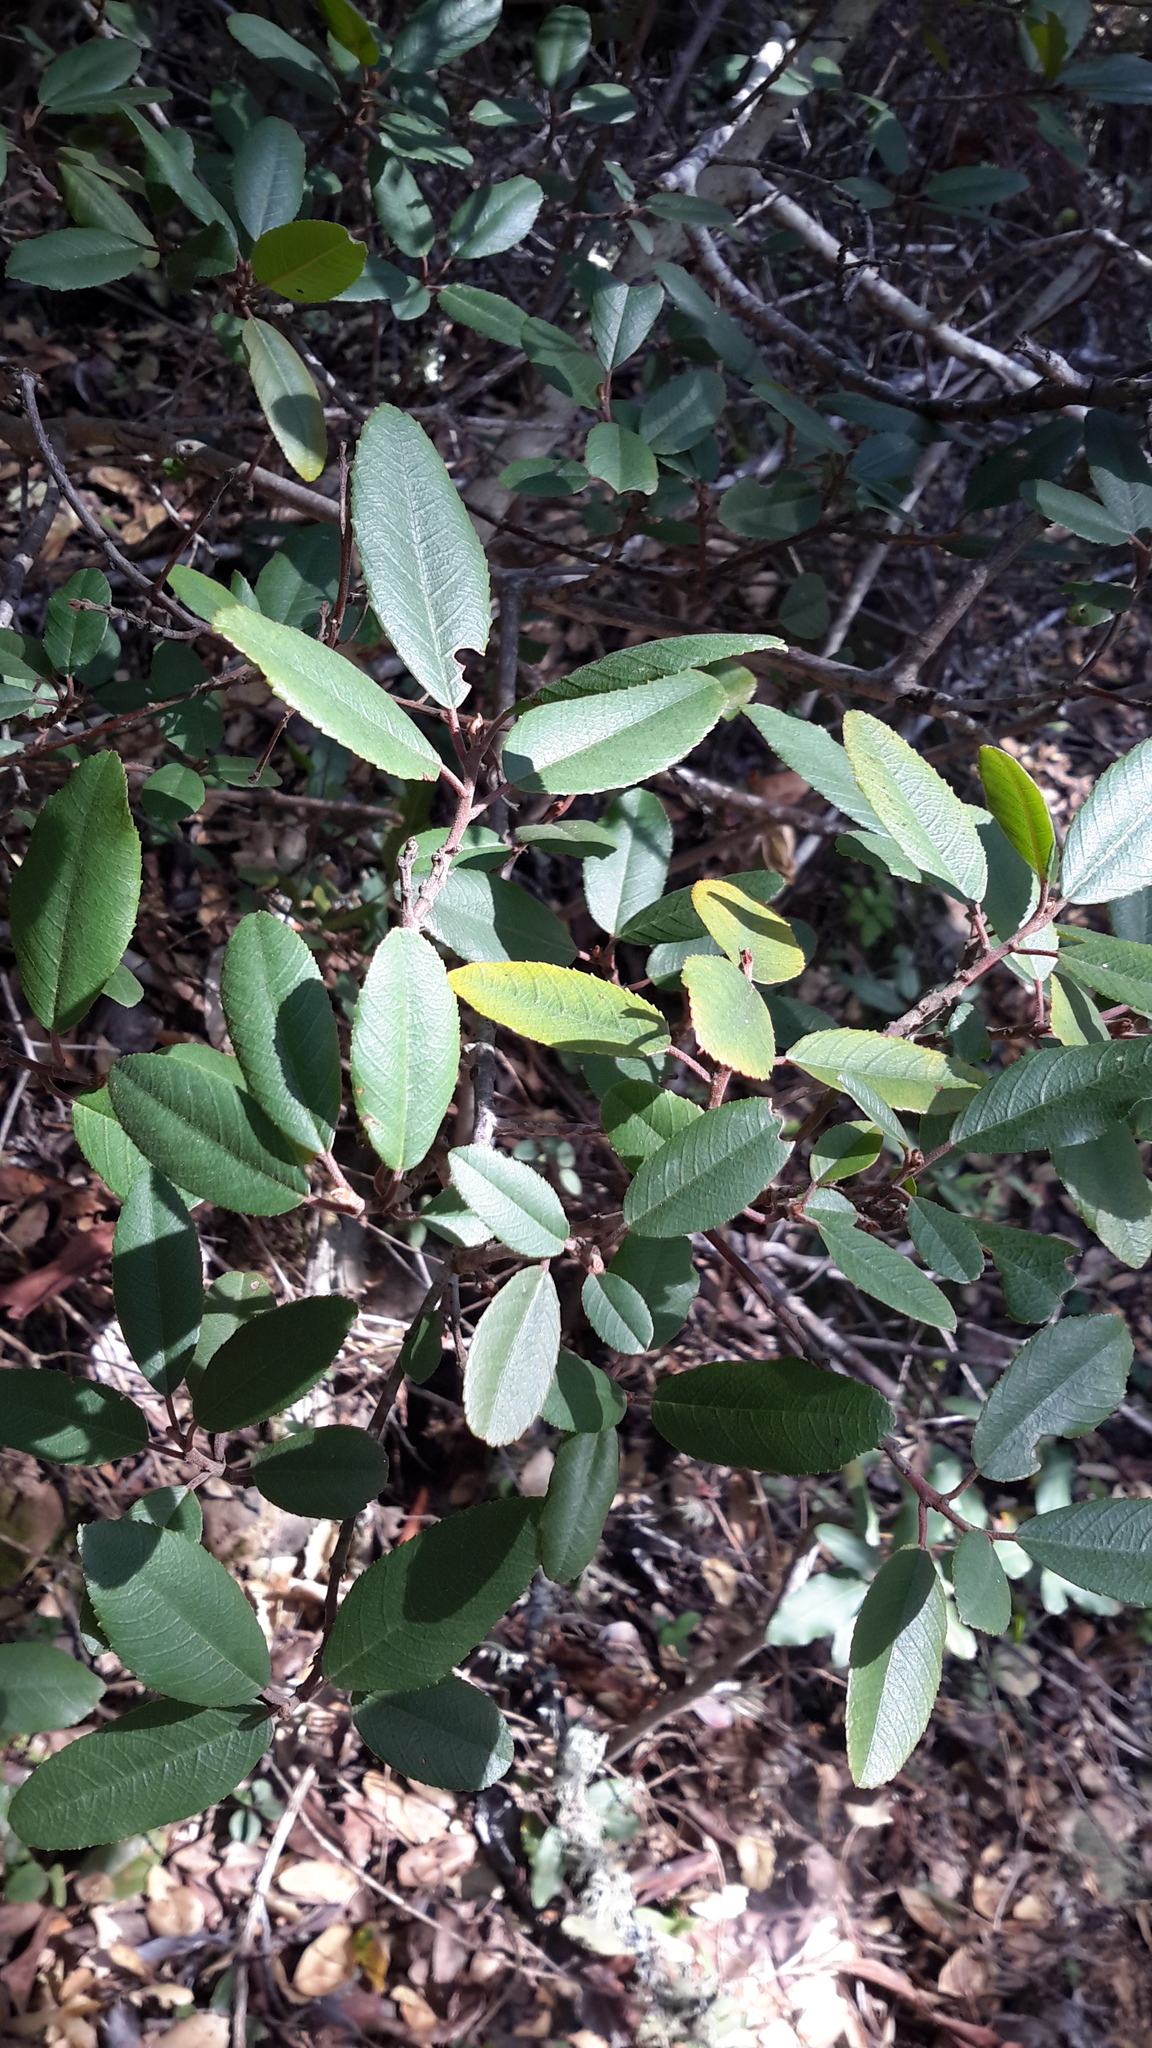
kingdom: Plantae
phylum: Tracheophyta
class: Magnoliopsida
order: Rosales
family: Rhamnaceae
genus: Frangula
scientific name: Frangula californica
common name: California buckthorn
